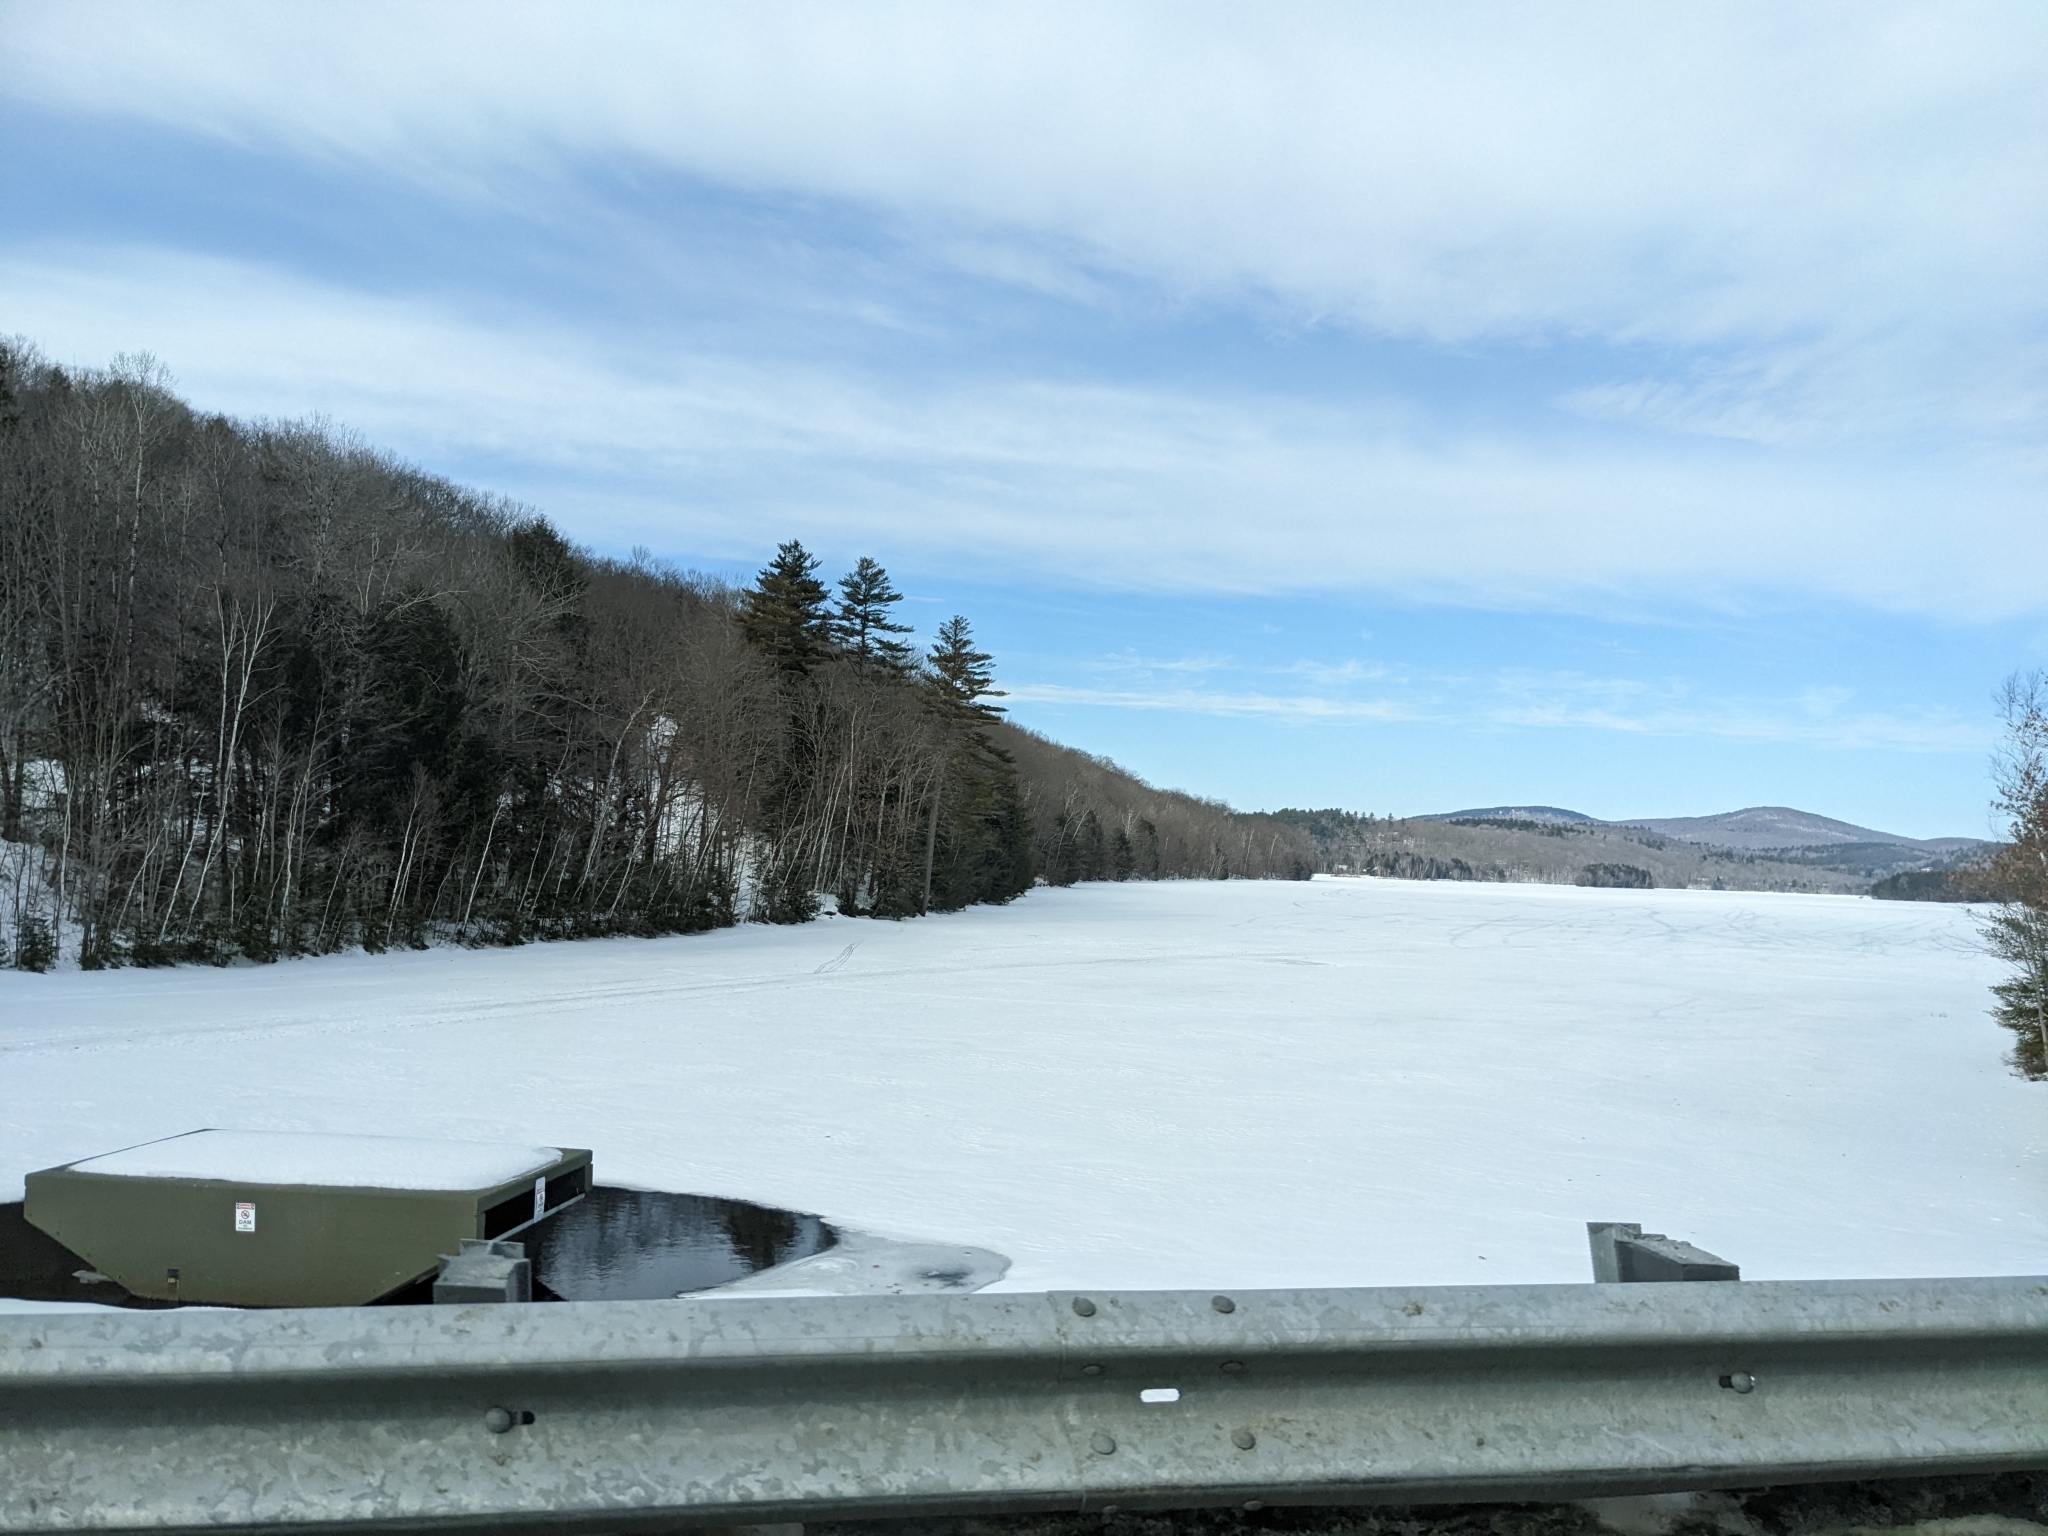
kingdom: Plantae
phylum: Tracheophyta
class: Pinopsida
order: Pinales
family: Pinaceae
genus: Pinus
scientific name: Pinus strobus
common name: Weymouth pine
